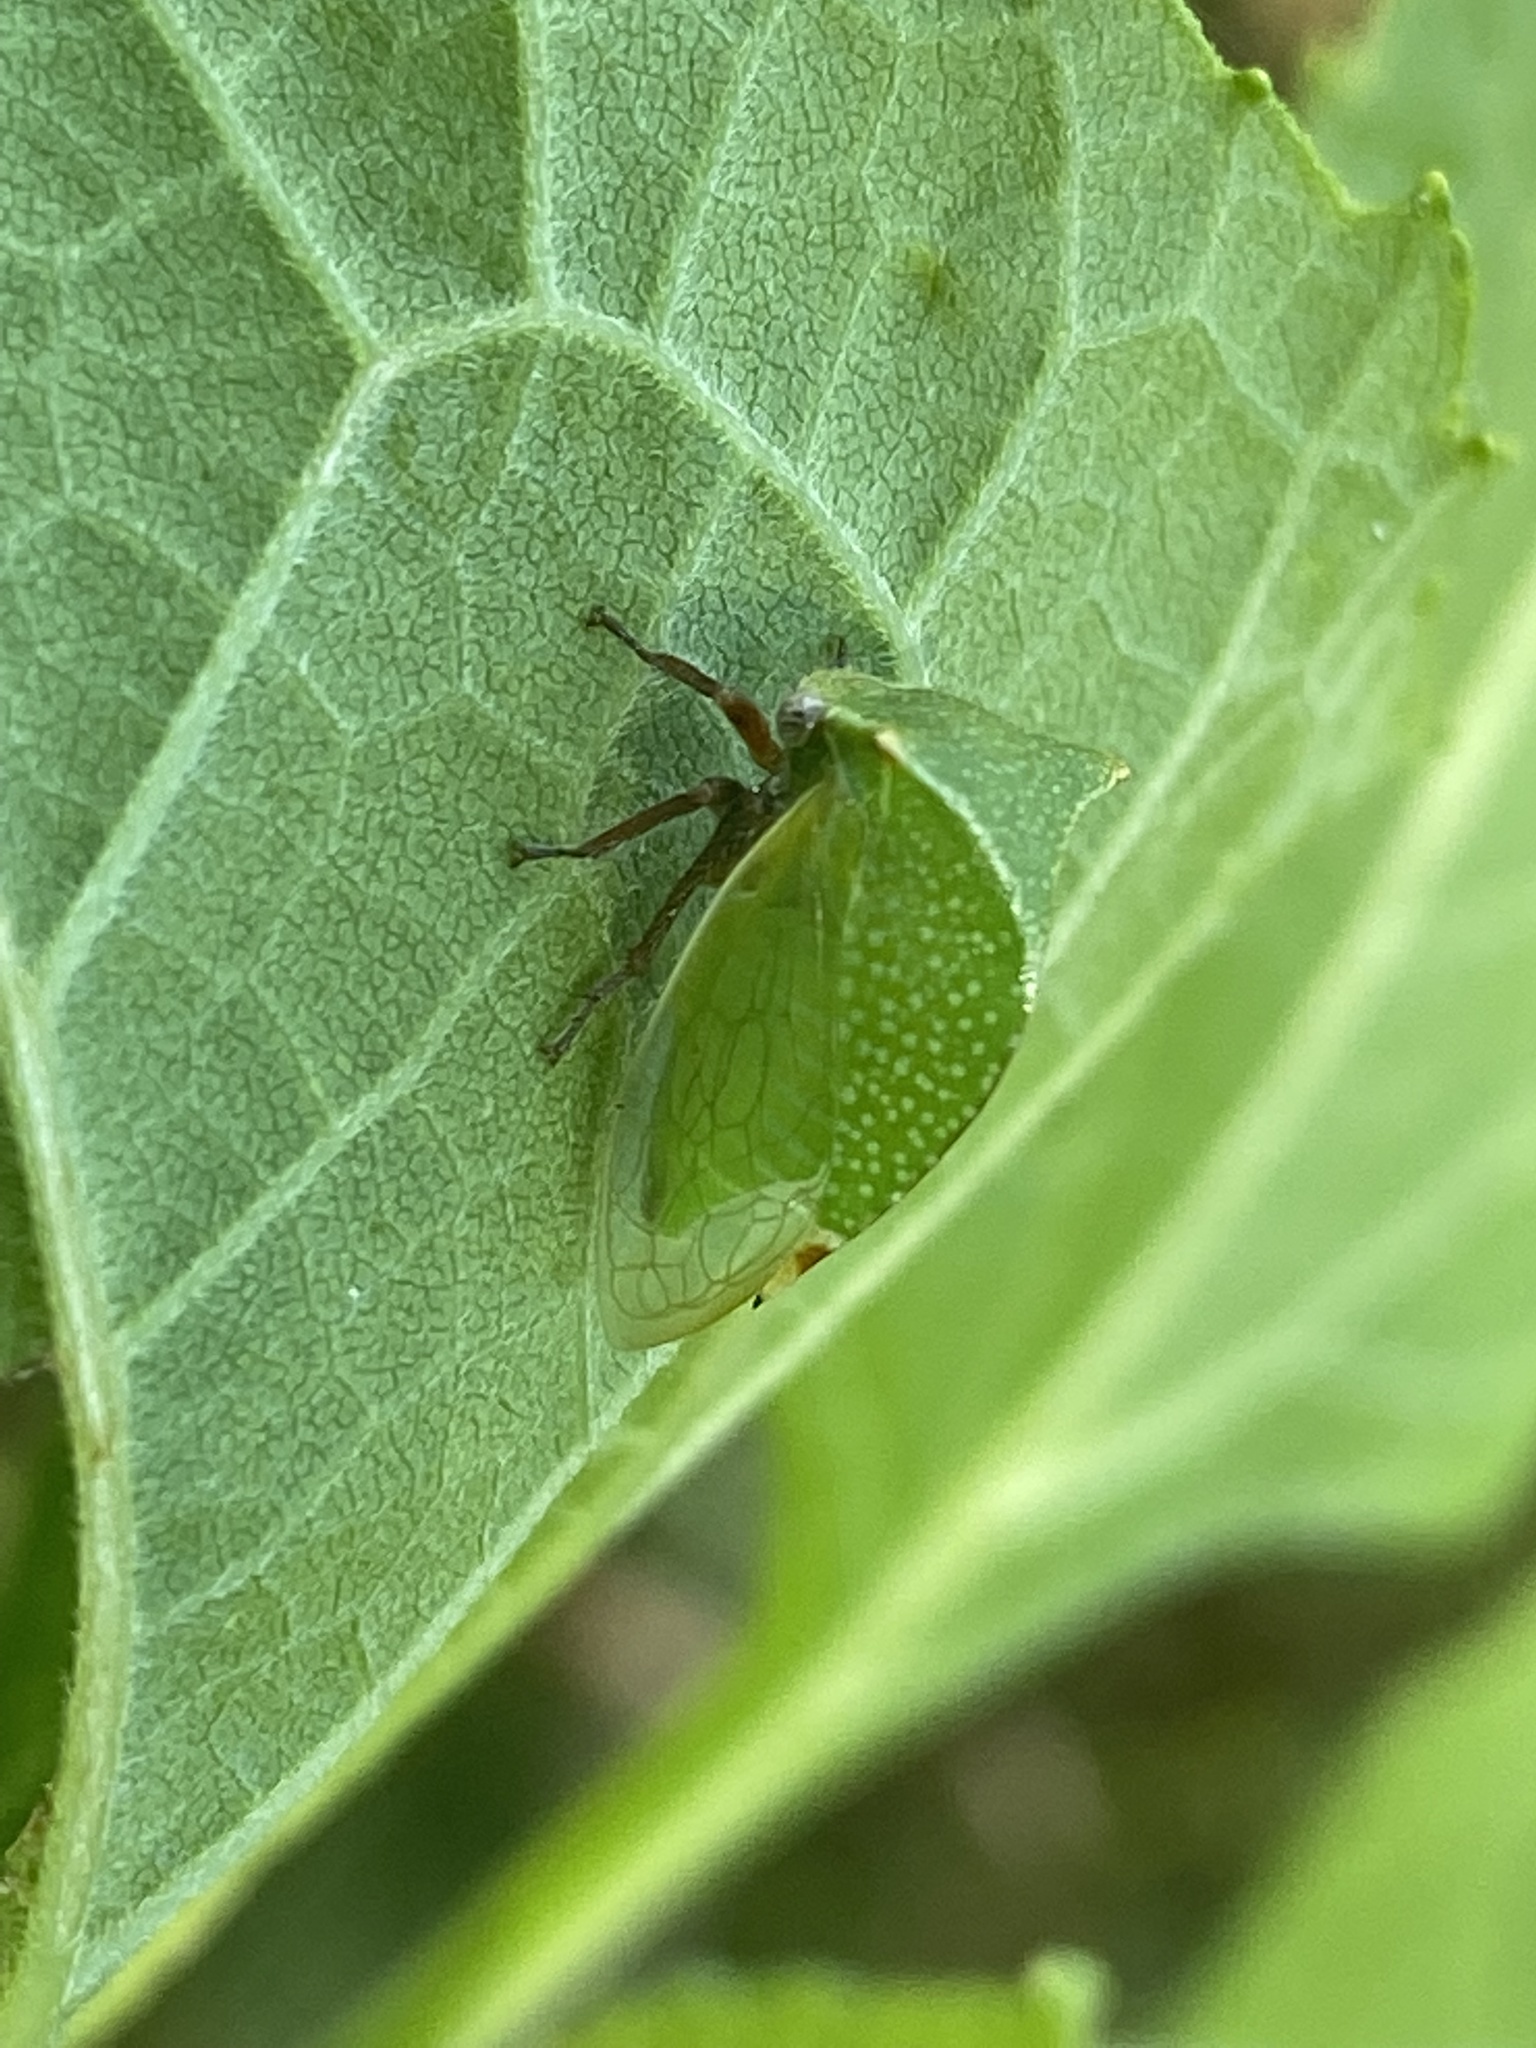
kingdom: Animalia
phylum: Arthropoda
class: Insecta
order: Hemiptera
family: Membracidae
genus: Tortistilus
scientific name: Tortistilus abnorma
